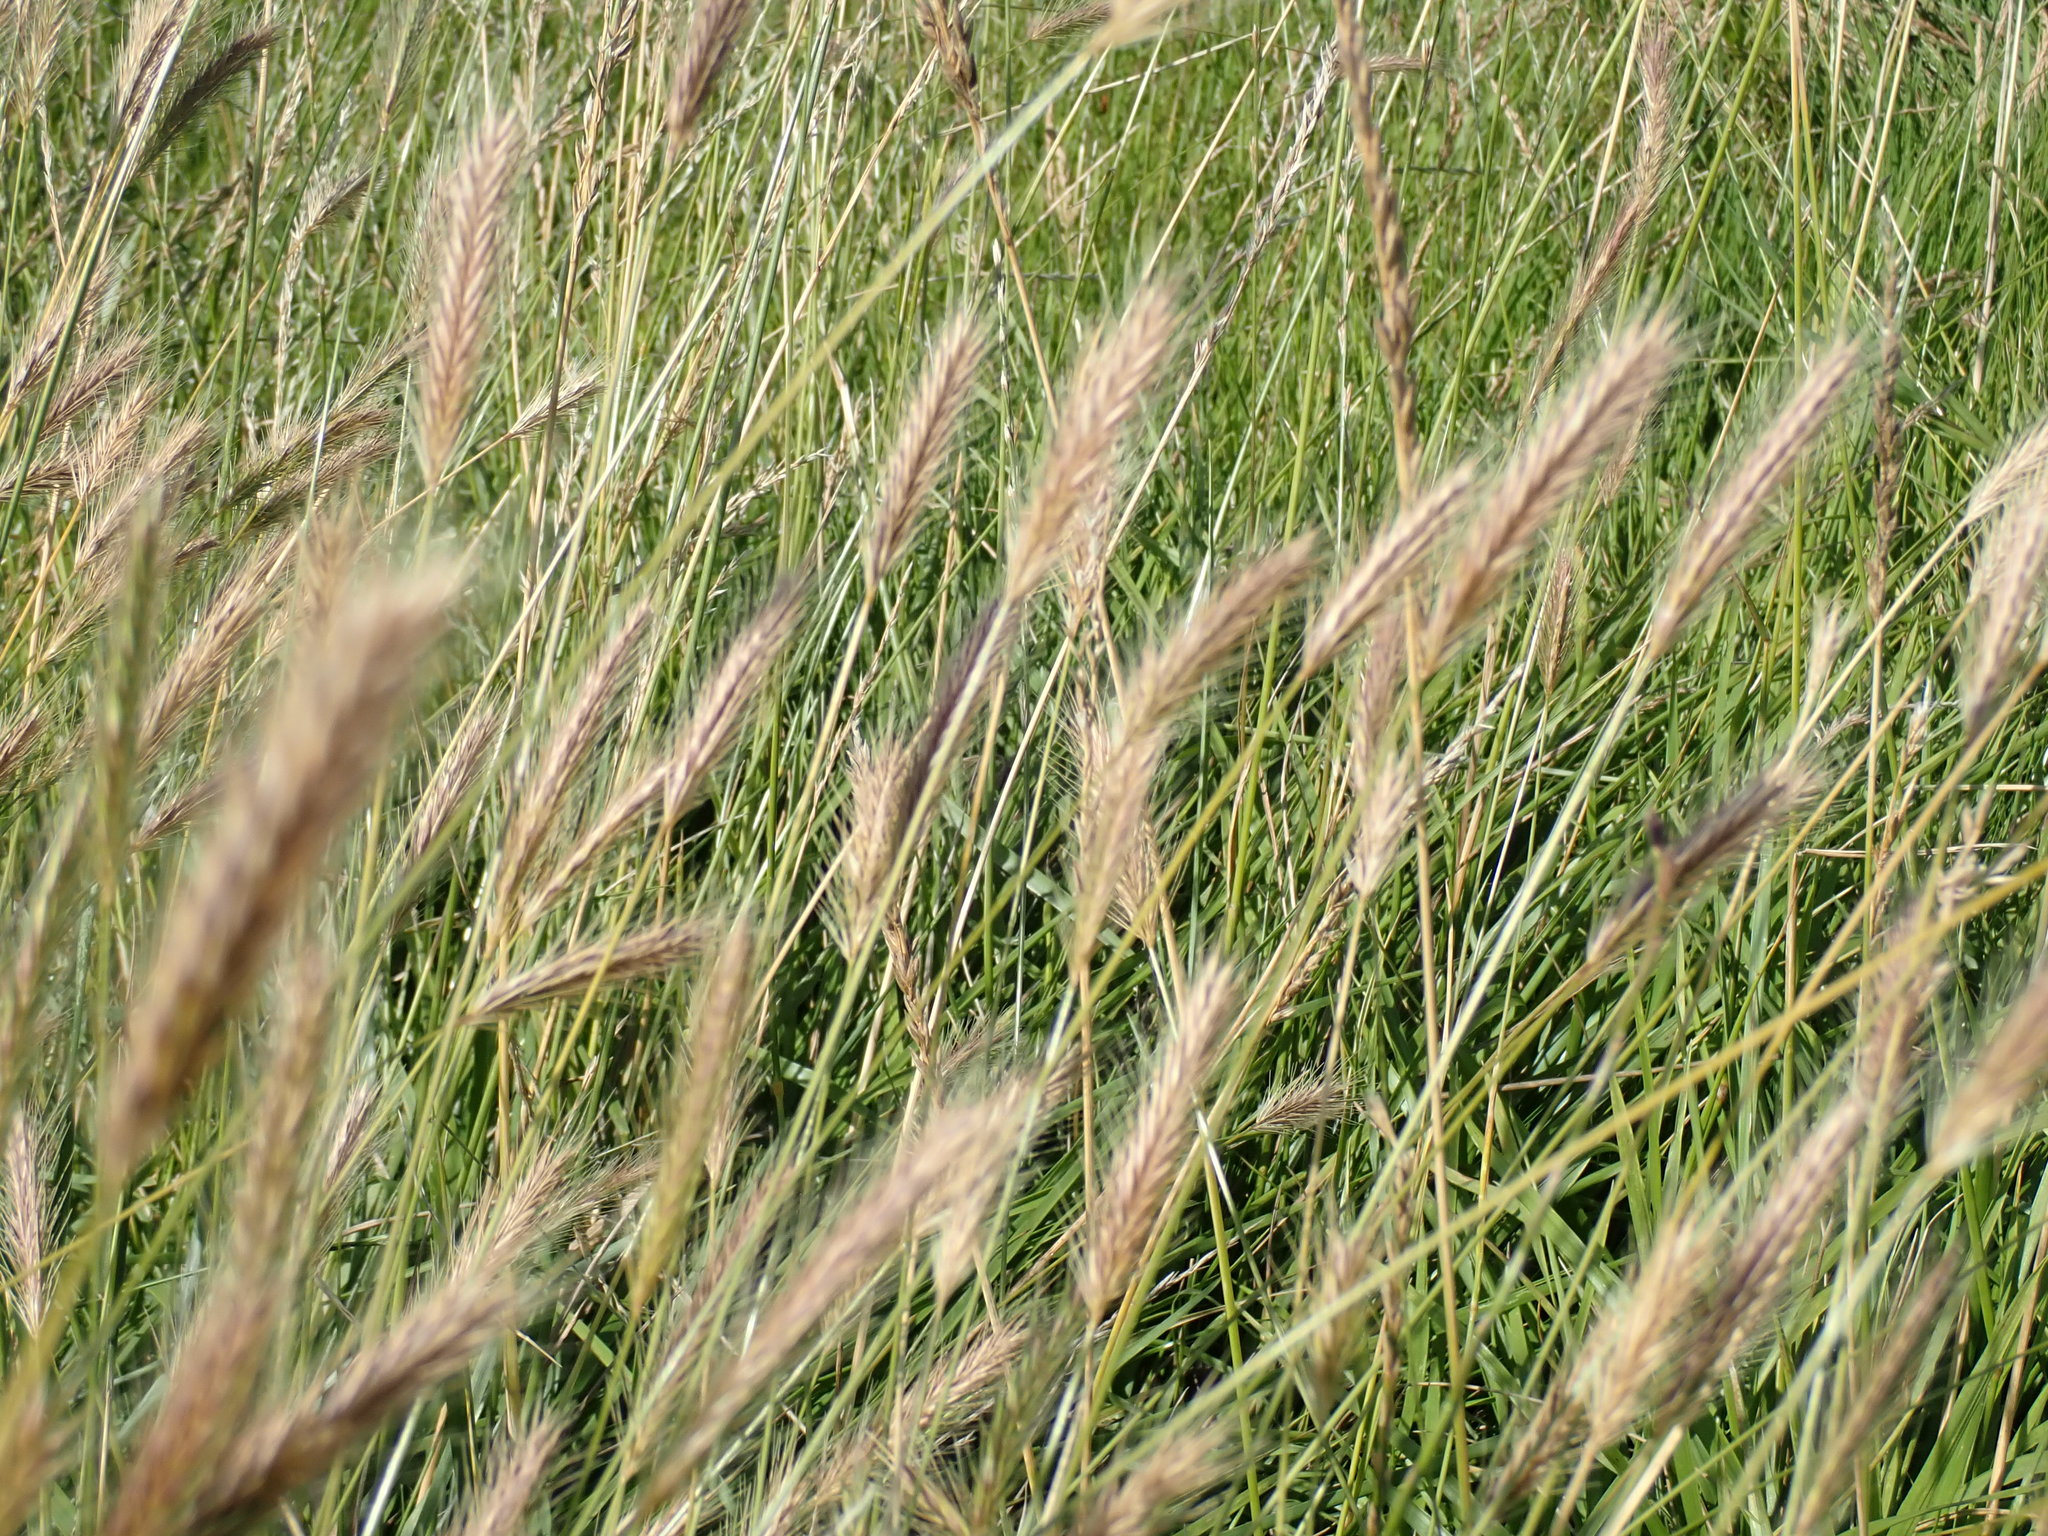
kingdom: Plantae
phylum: Tracheophyta
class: Liliopsida
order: Poales
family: Poaceae
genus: Hordeum
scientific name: Hordeum secalinum
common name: Meadow barley
